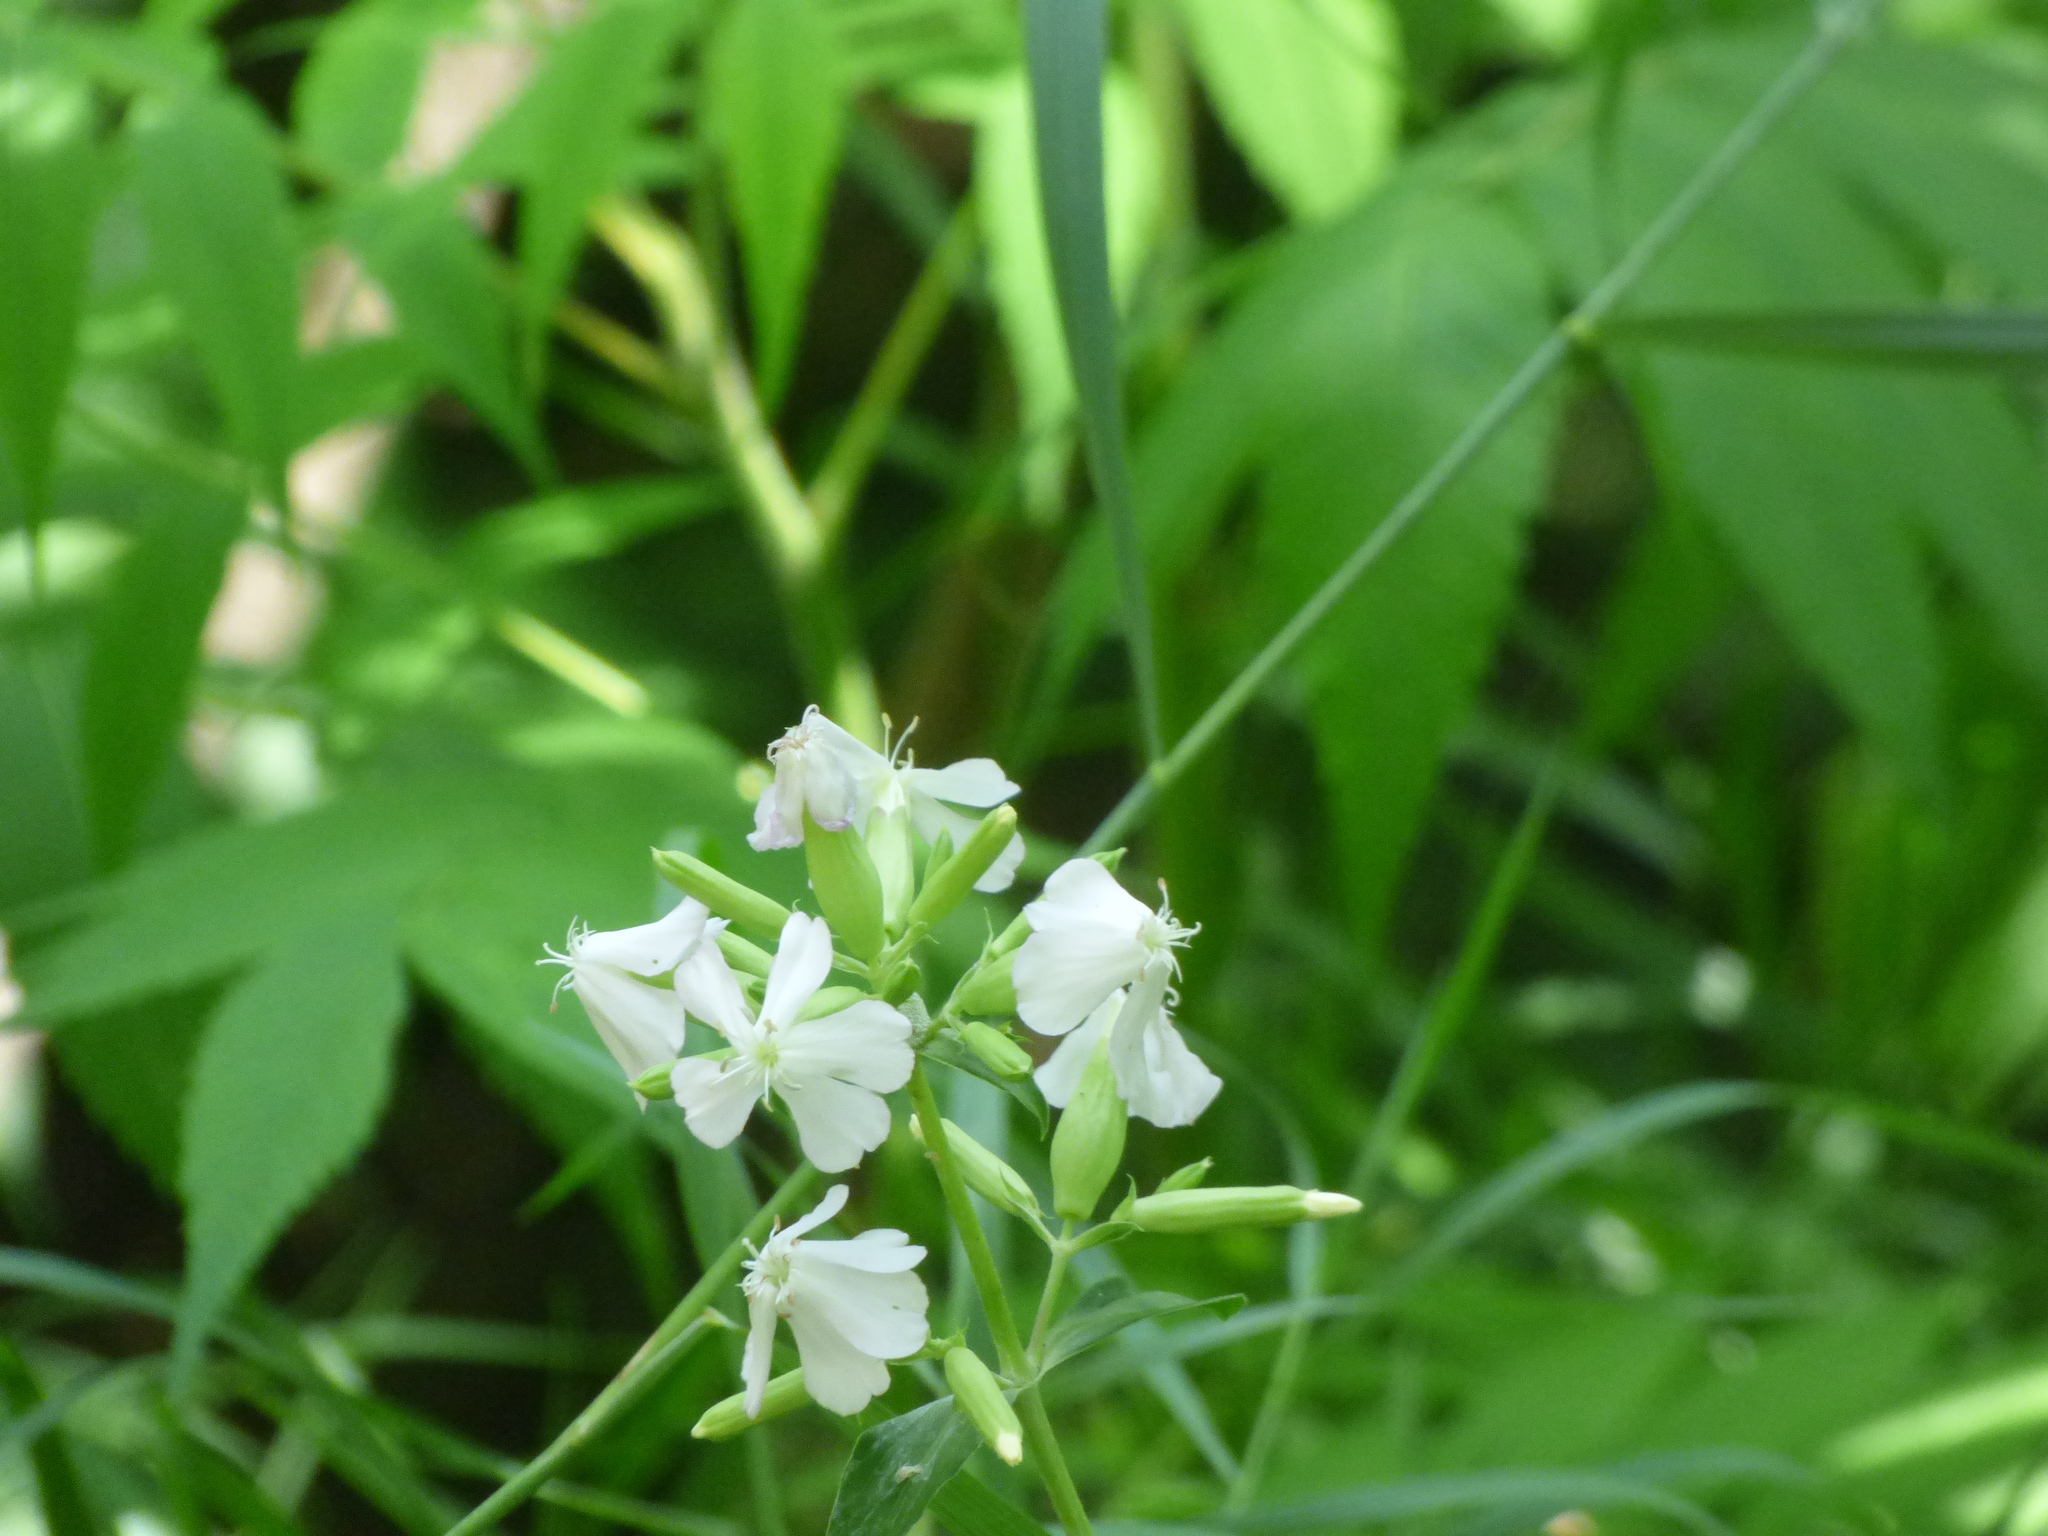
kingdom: Plantae
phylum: Tracheophyta
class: Magnoliopsida
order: Caryophyllales
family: Caryophyllaceae
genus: Saponaria
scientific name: Saponaria officinalis
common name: Soapwort
